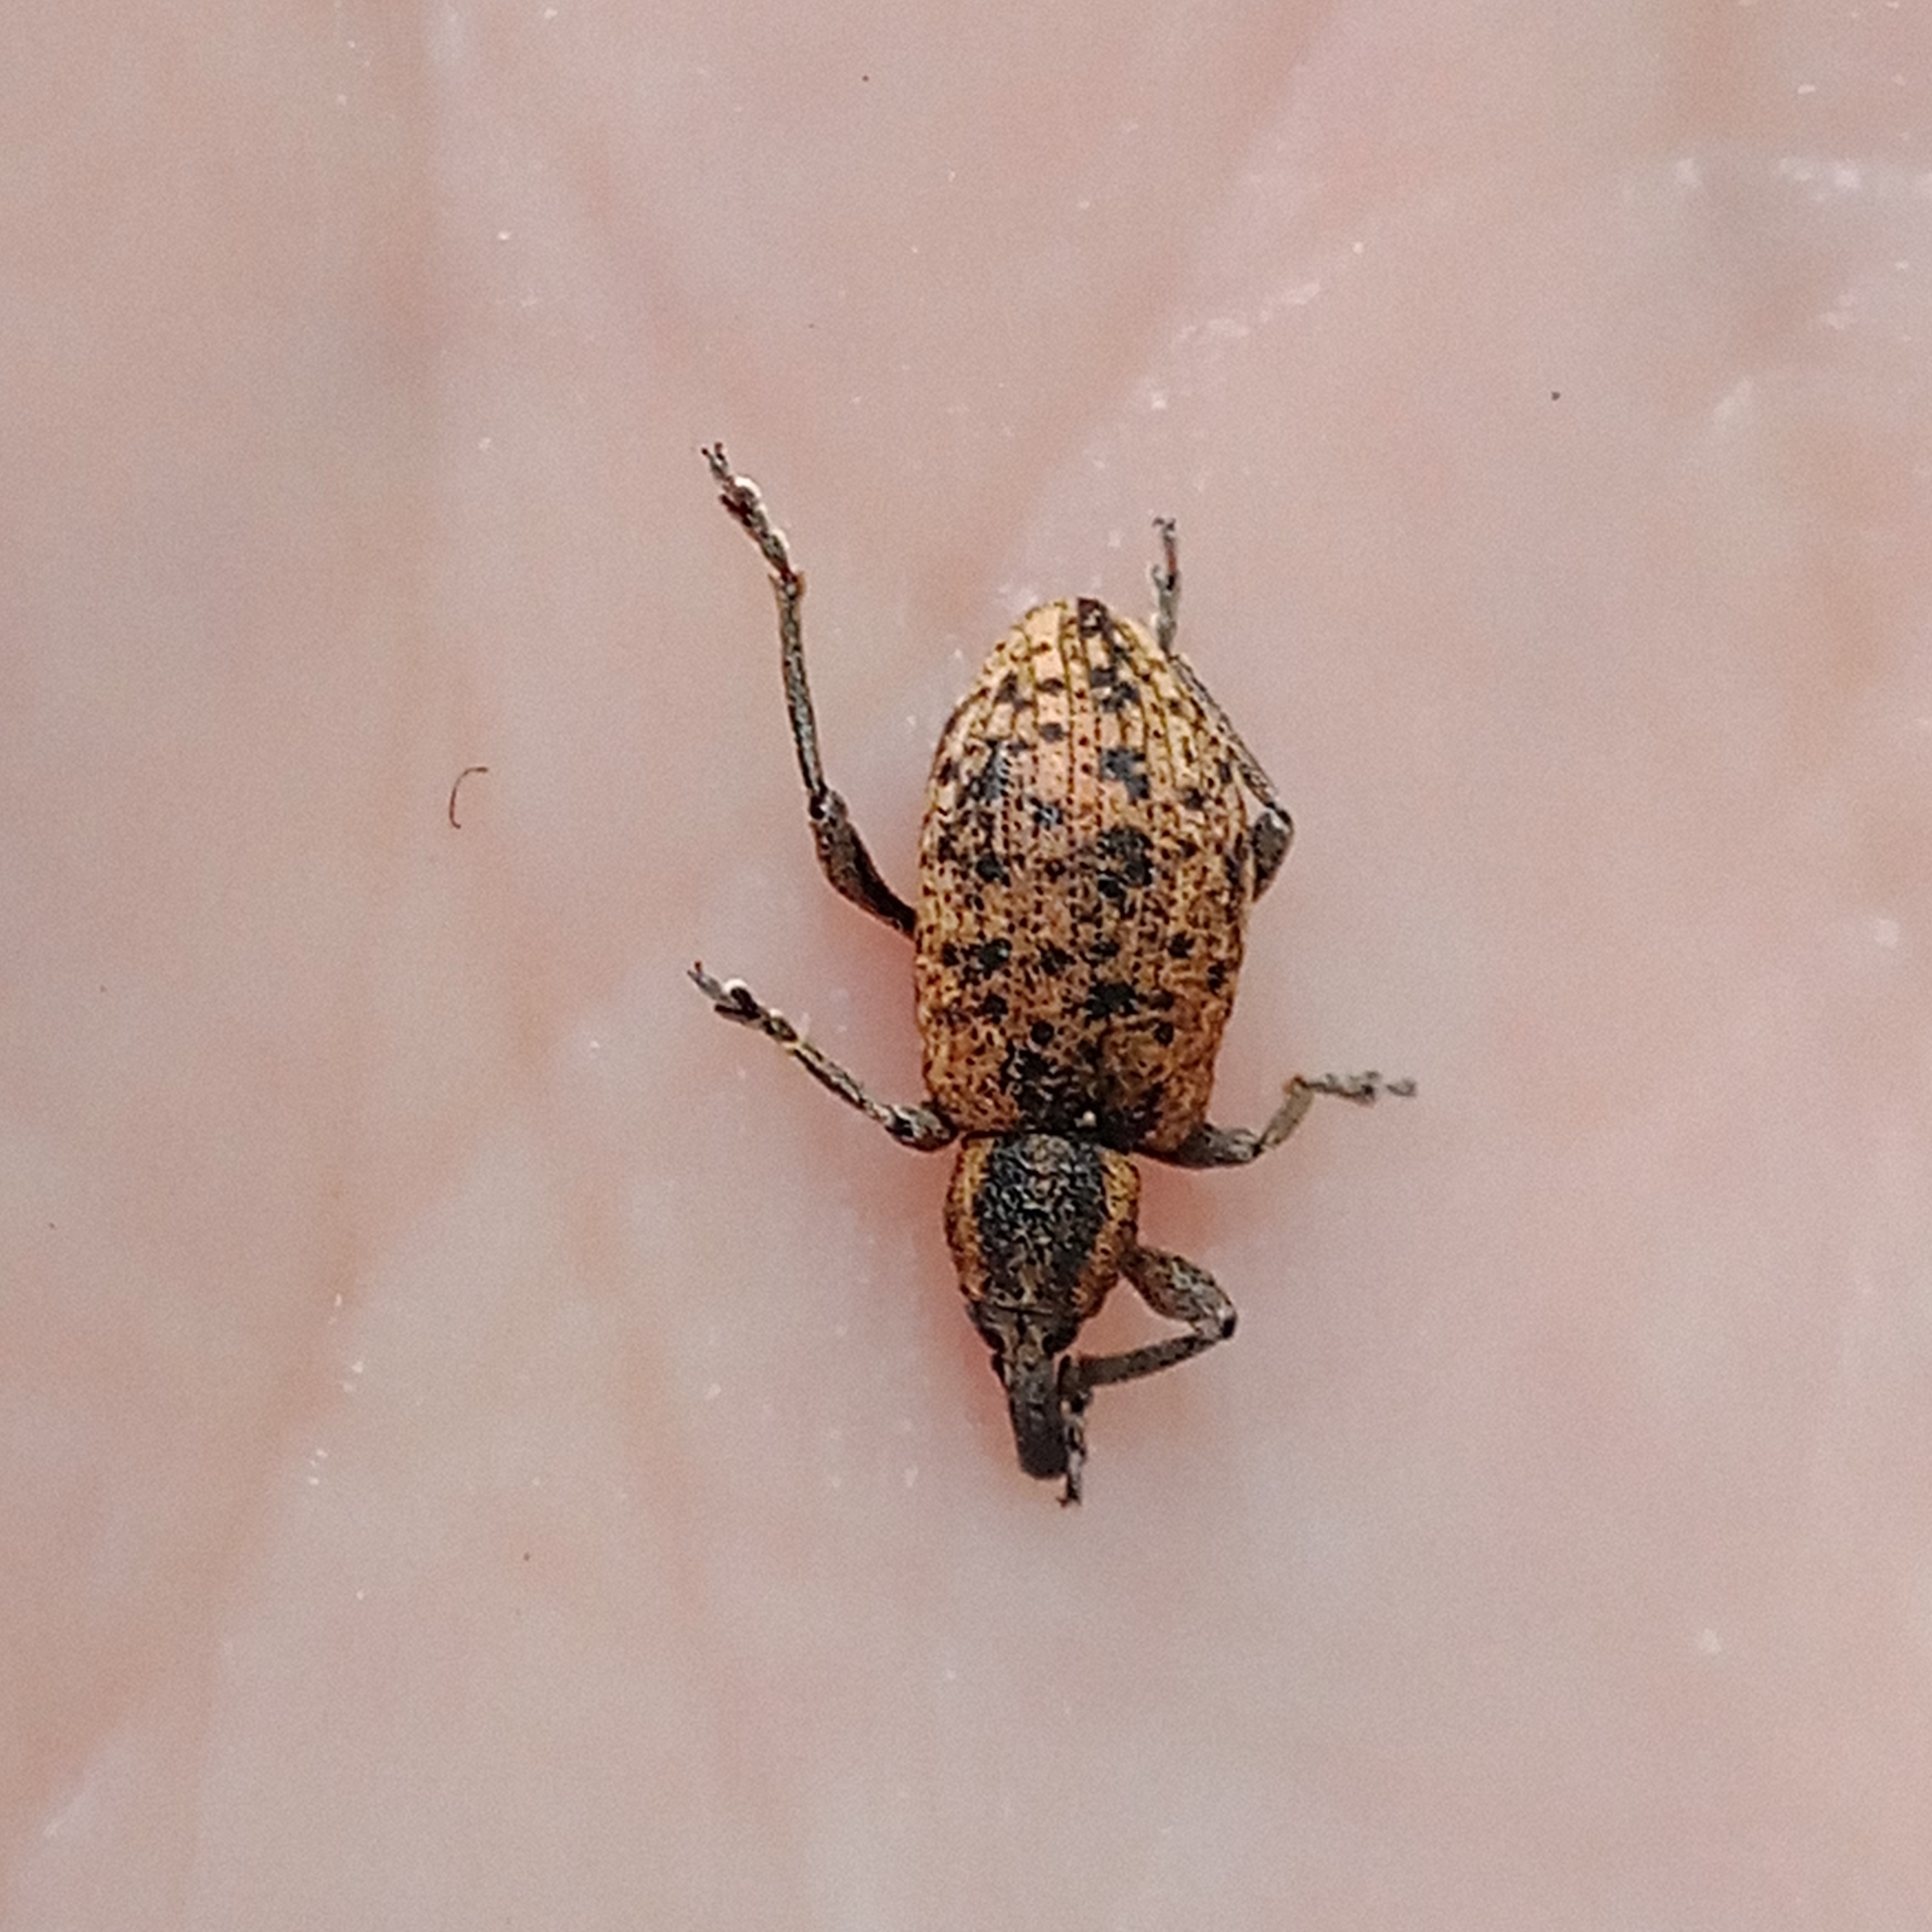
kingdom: Animalia
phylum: Arthropoda
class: Insecta
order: Coleoptera
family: Curculionidae
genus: Hypera
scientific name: Hypera conmaculata
